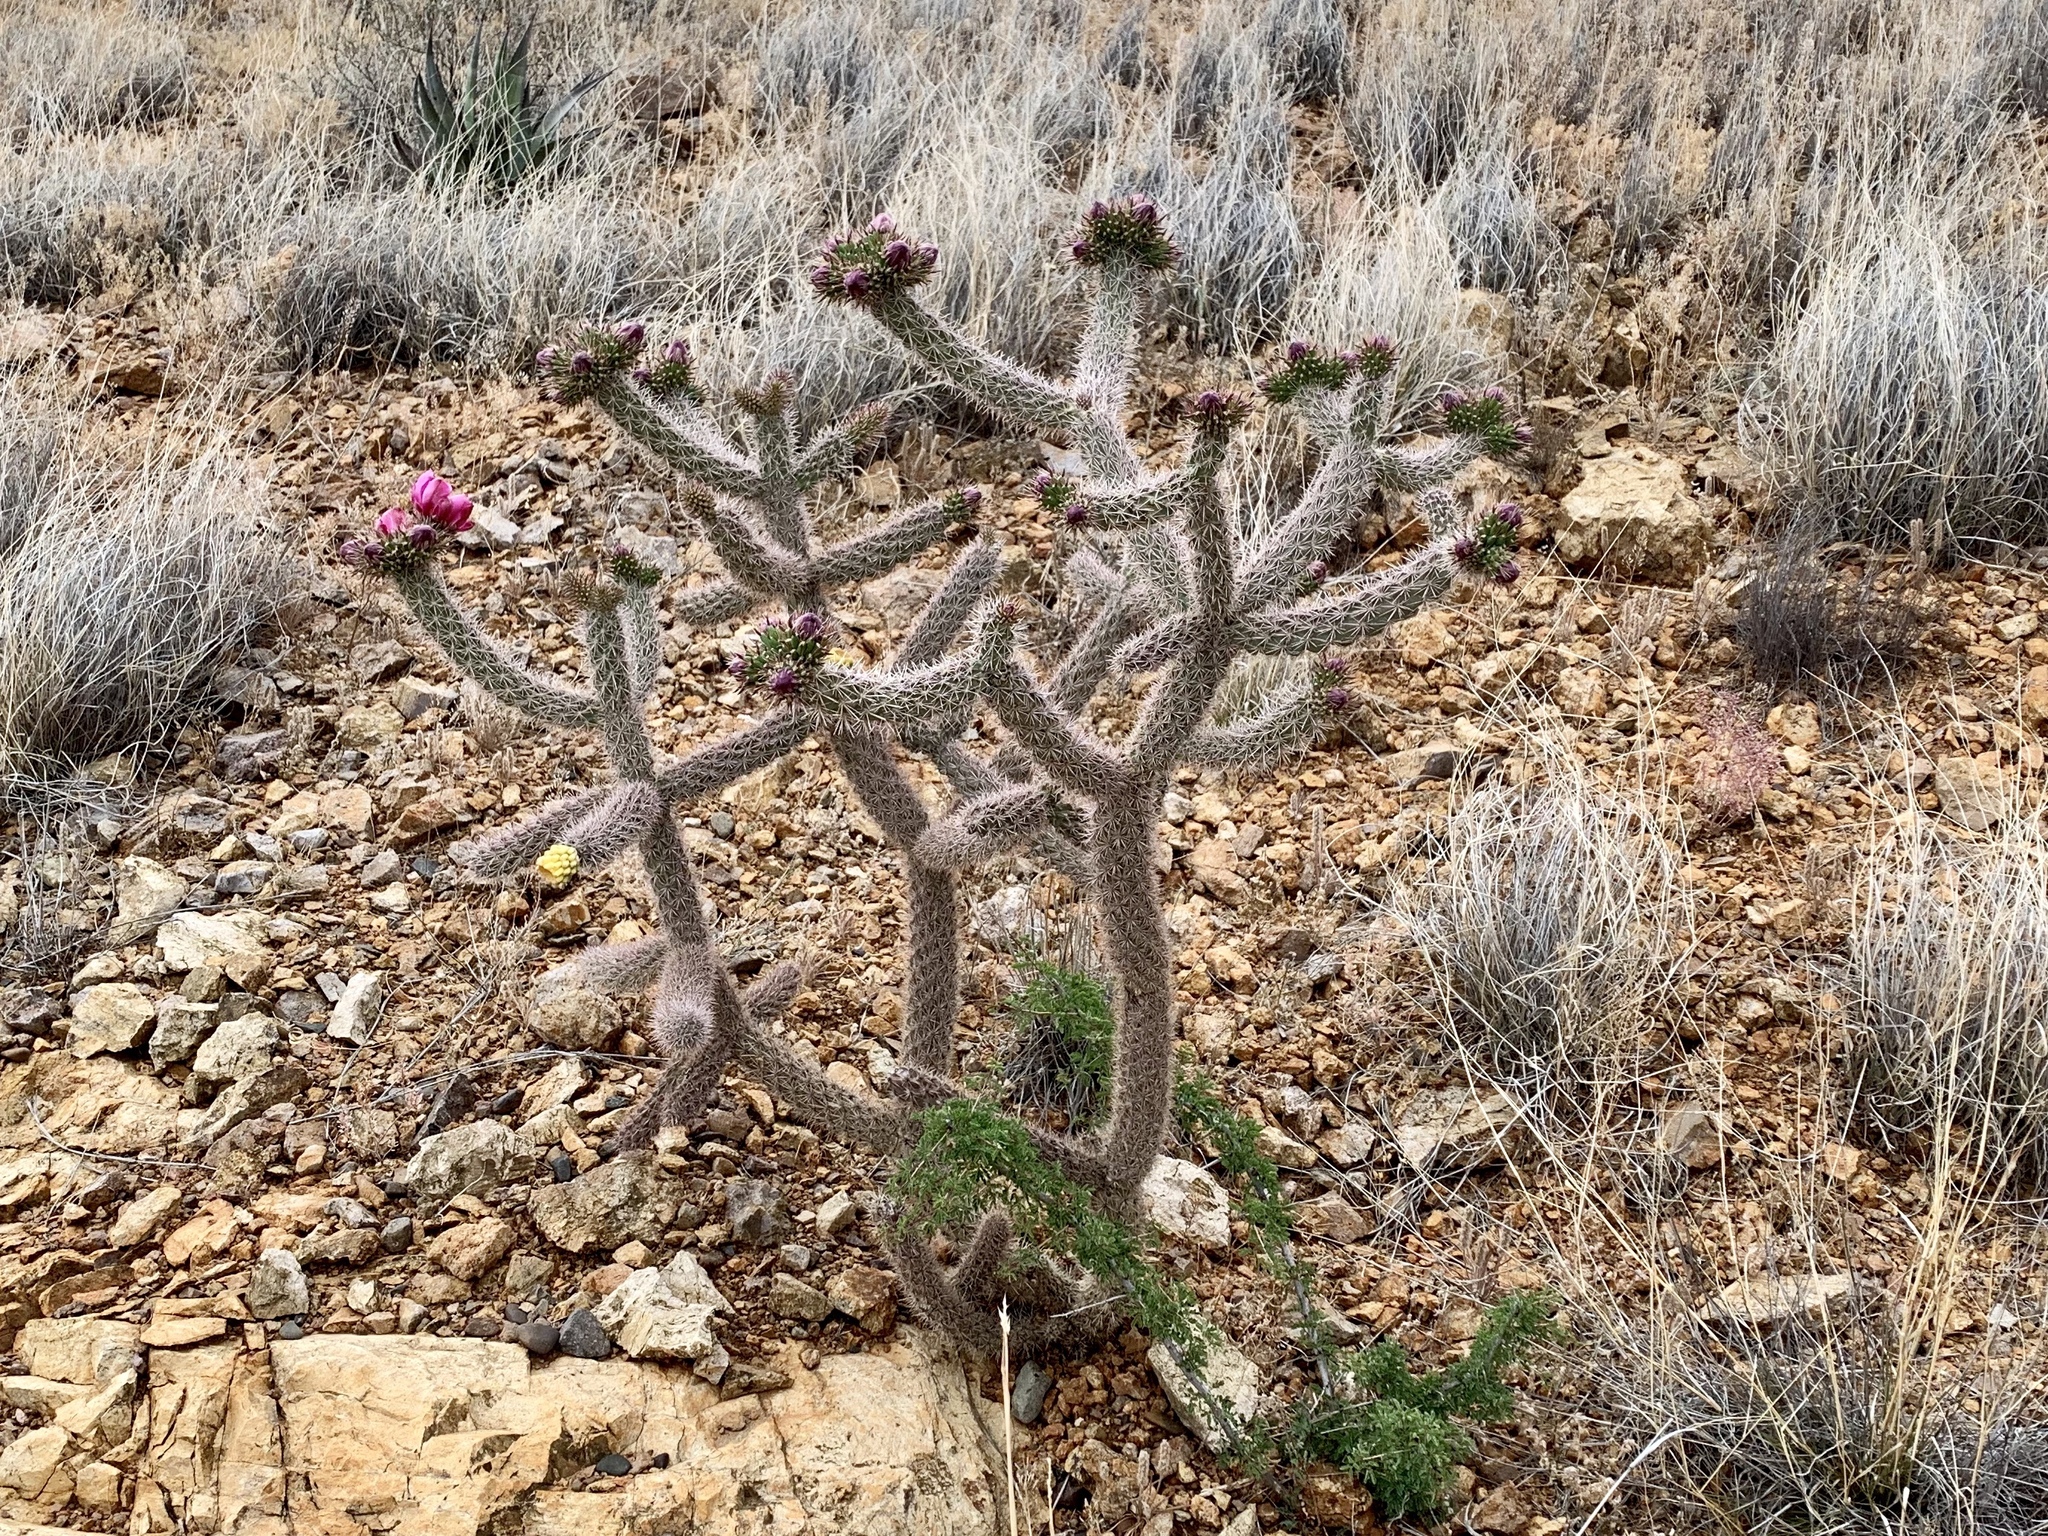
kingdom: Plantae
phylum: Tracheophyta
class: Magnoliopsida
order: Caryophyllales
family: Cactaceae
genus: Cylindropuntia
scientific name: Cylindropuntia imbricata
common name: Candelabrum cactus
